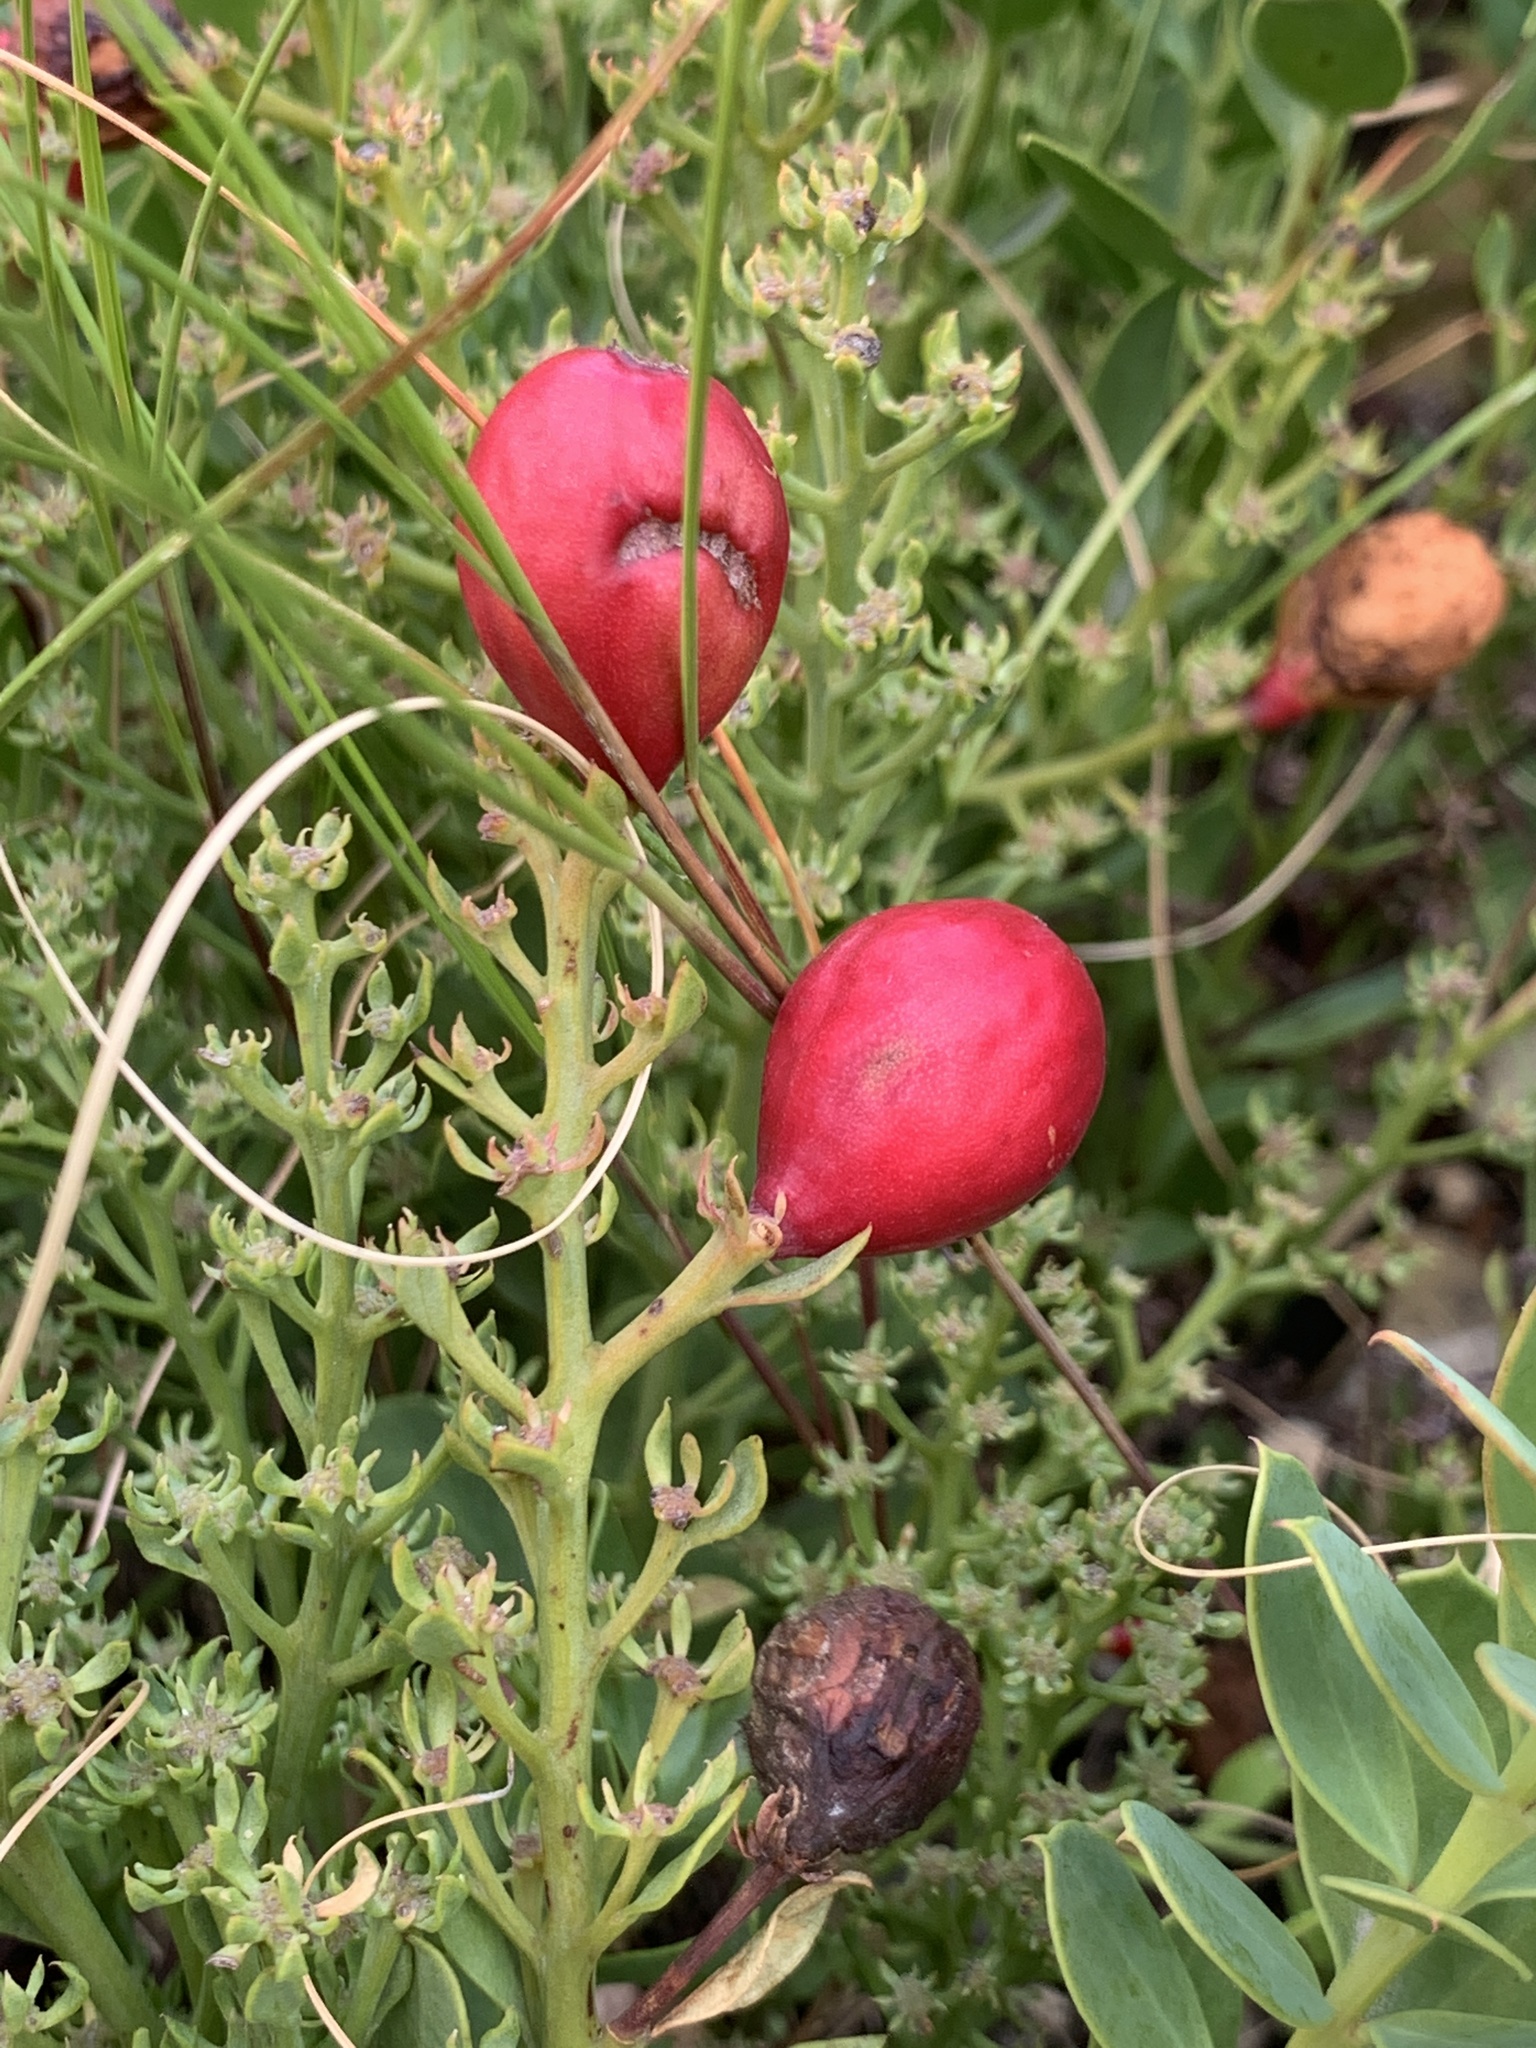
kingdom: Plantae
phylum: Tracheophyta
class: Magnoliopsida
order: Santalales
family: Santalaceae
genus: Osyris
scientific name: Osyris speciosa
